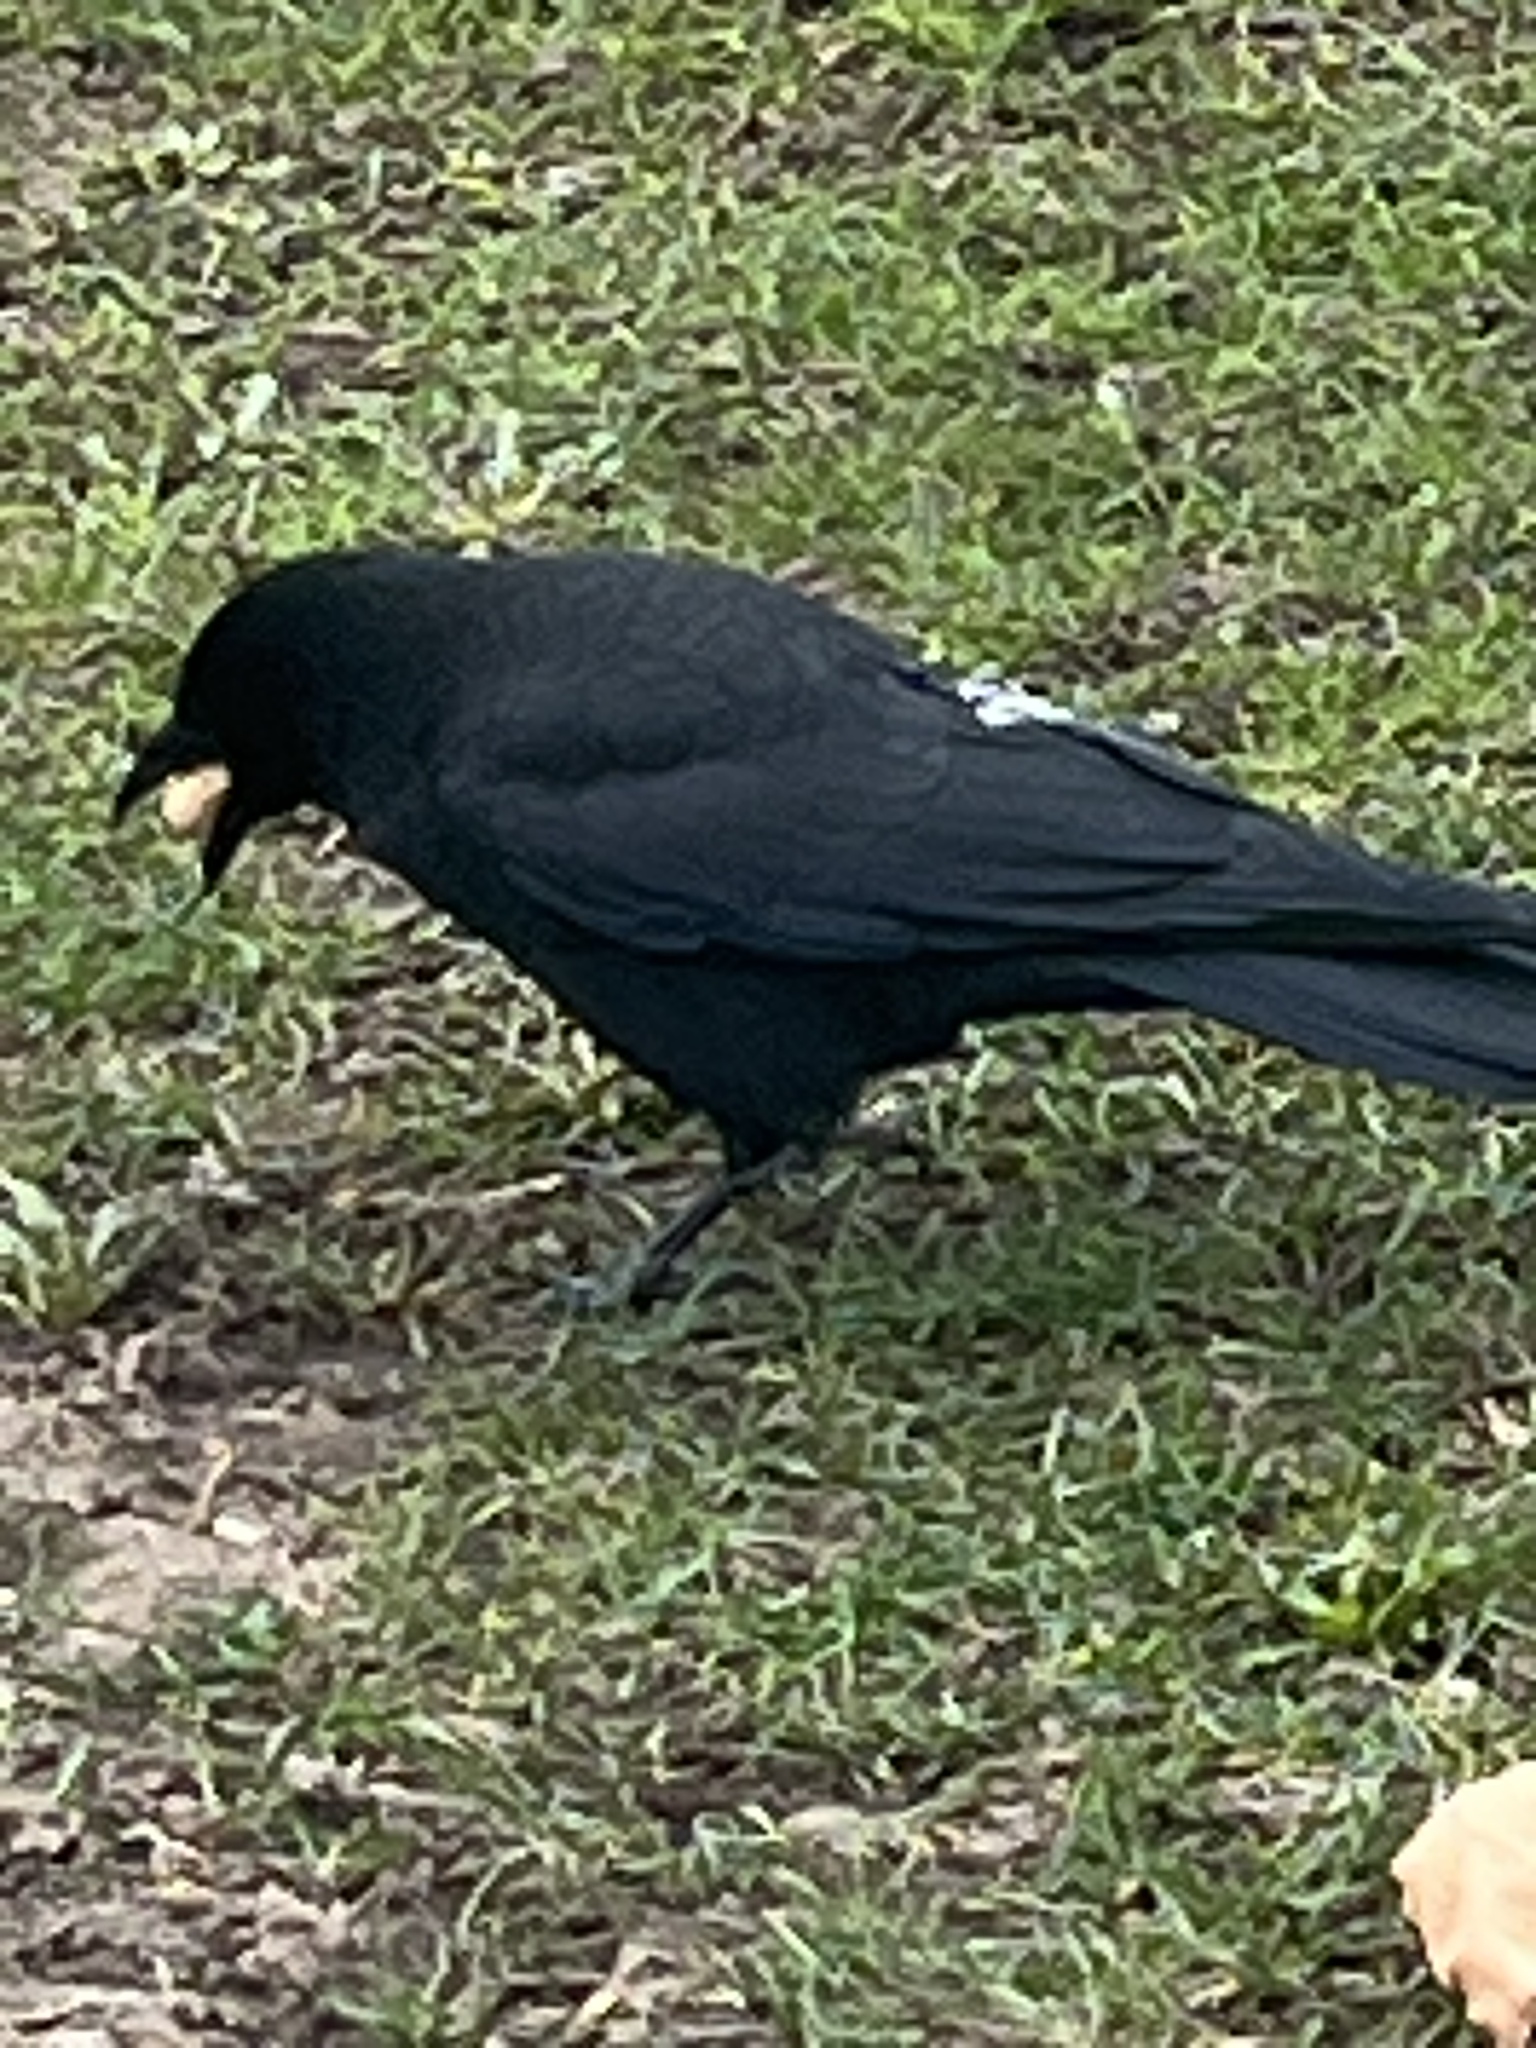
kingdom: Animalia
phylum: Chordata
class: Aves
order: Passeriformes
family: Corvidae
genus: Corvus
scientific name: Corvus brachyrhynchos
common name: American crow
